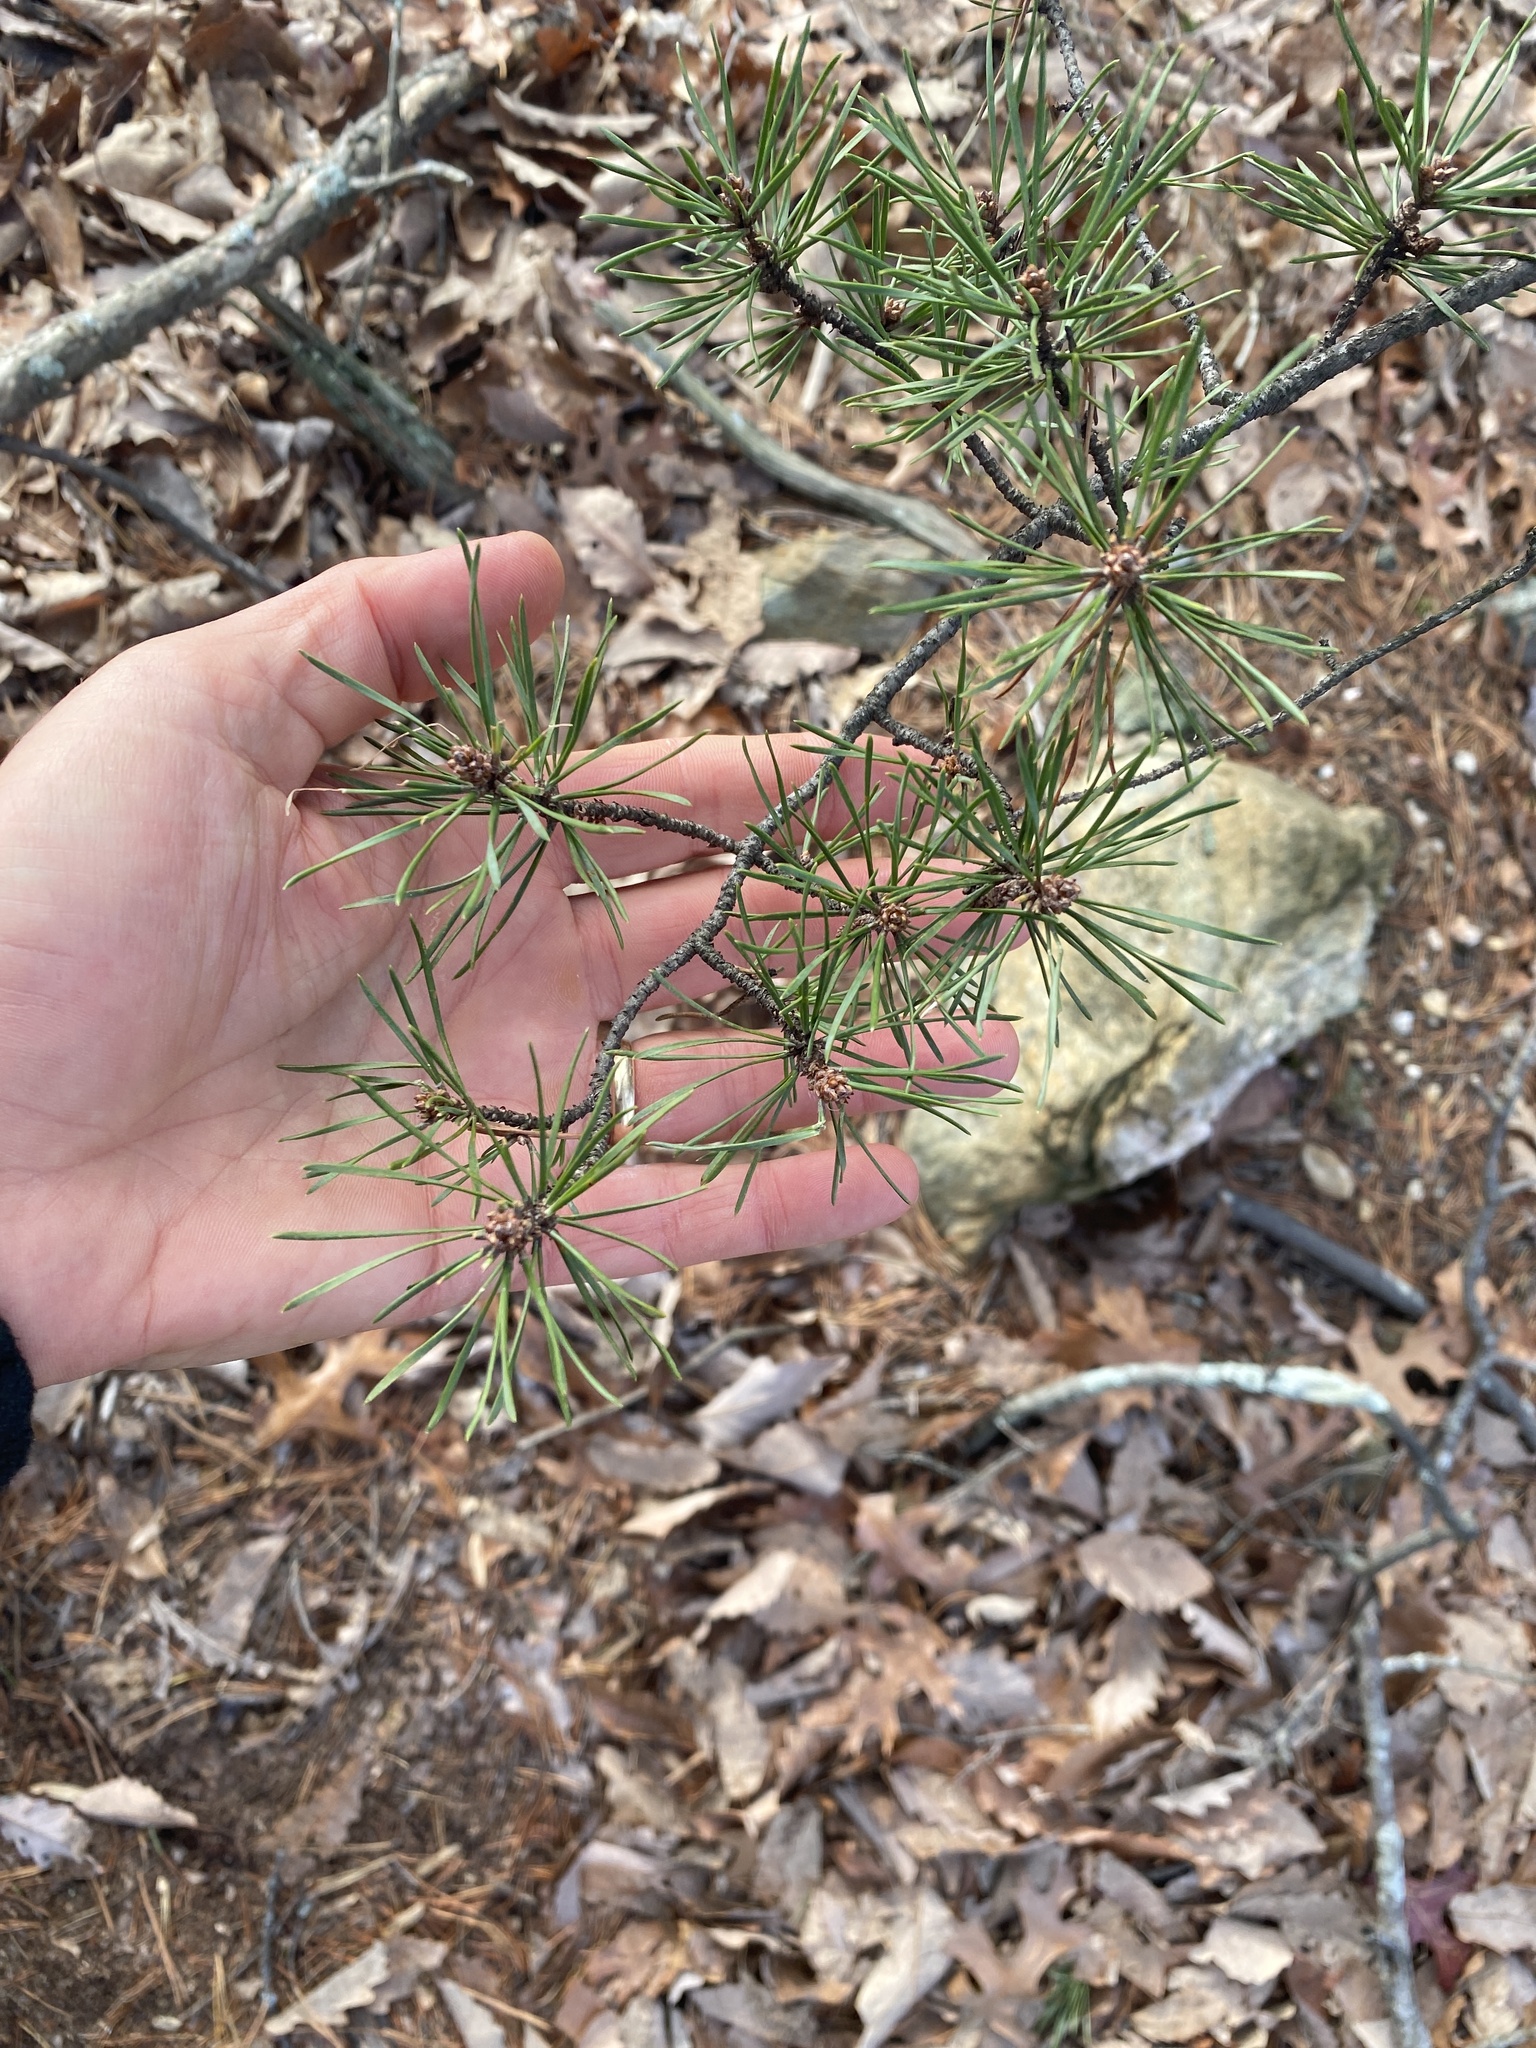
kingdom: Plantae
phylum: Tracheophyta
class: Pinopsida
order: Pinales
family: Pinaceae
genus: Pinus
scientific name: Pinus virginiana
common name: Scrub pine
